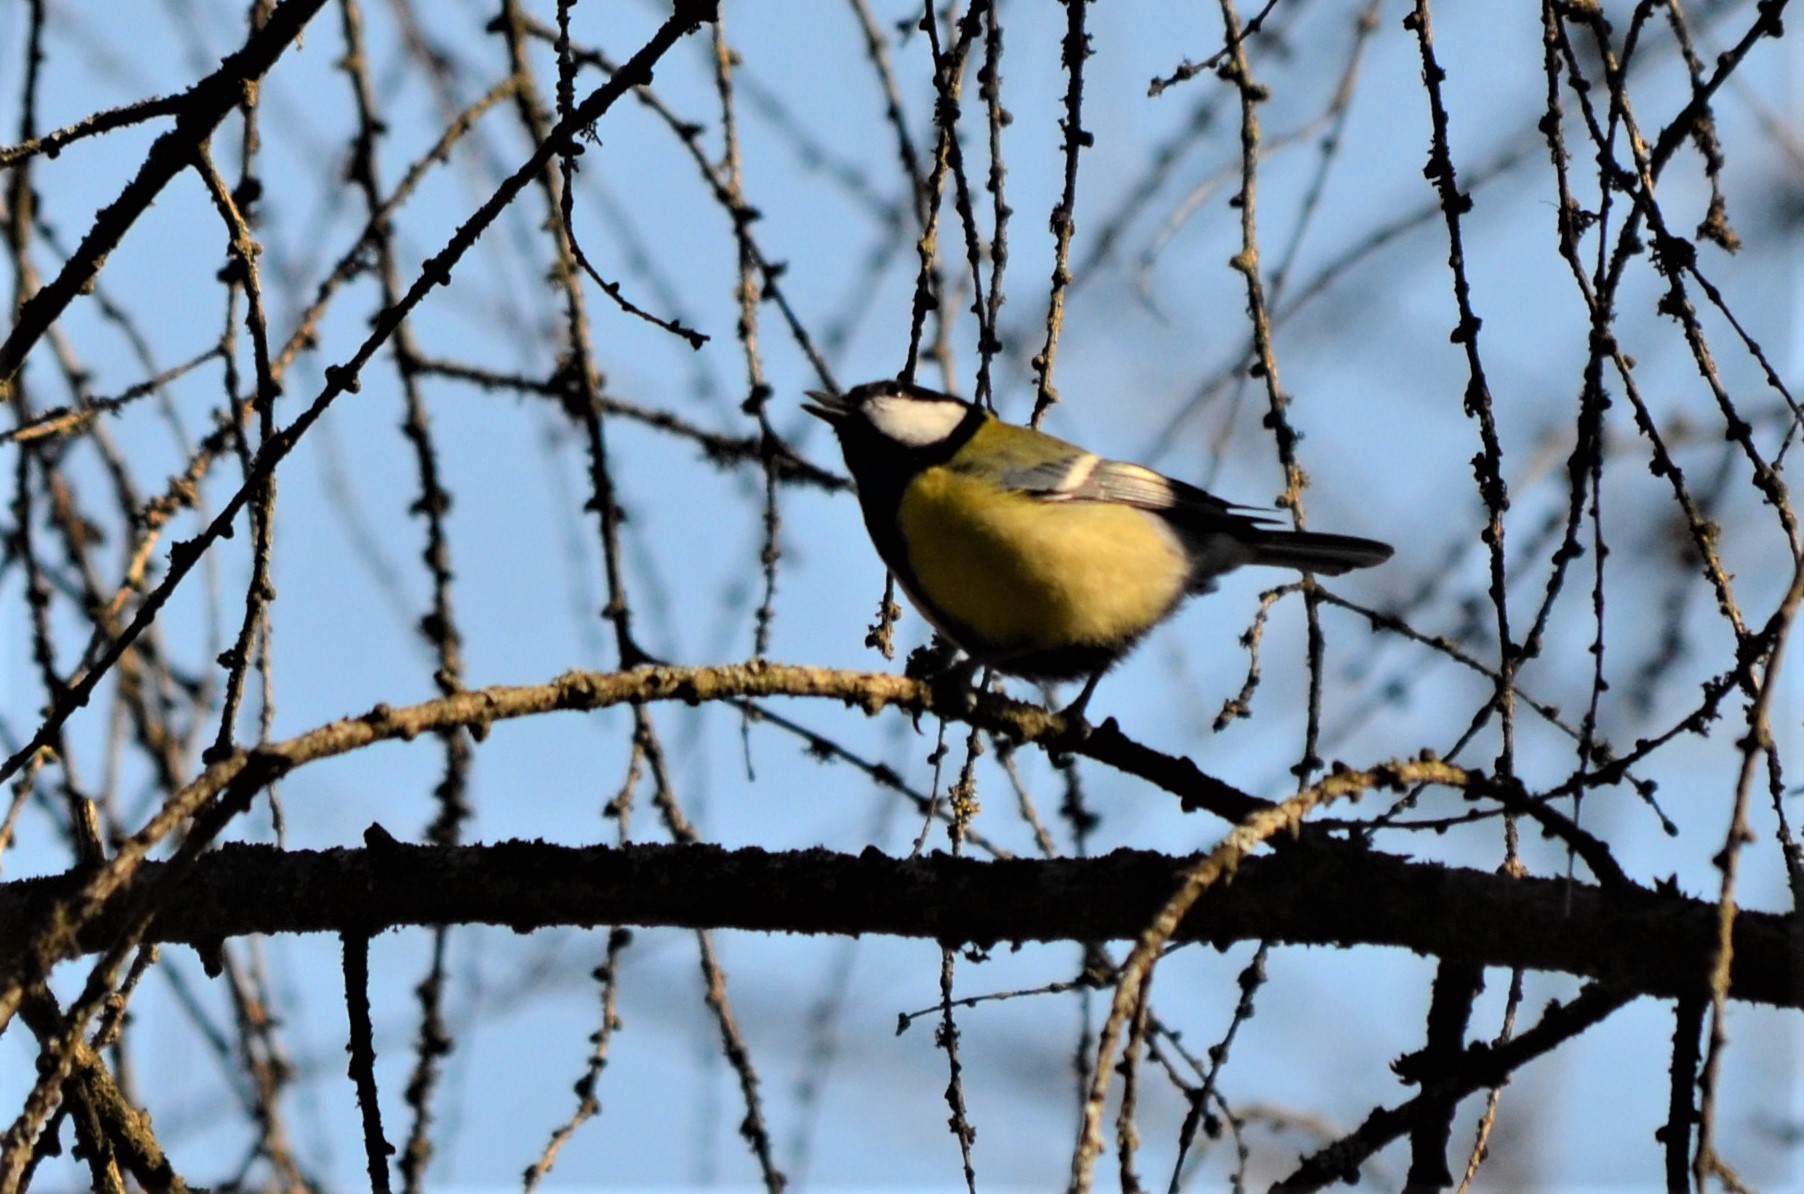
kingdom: Animalia
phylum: Chordata
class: Aves
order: Passeriformes
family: Paridae
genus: Parus
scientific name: Parus major
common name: Great tit
